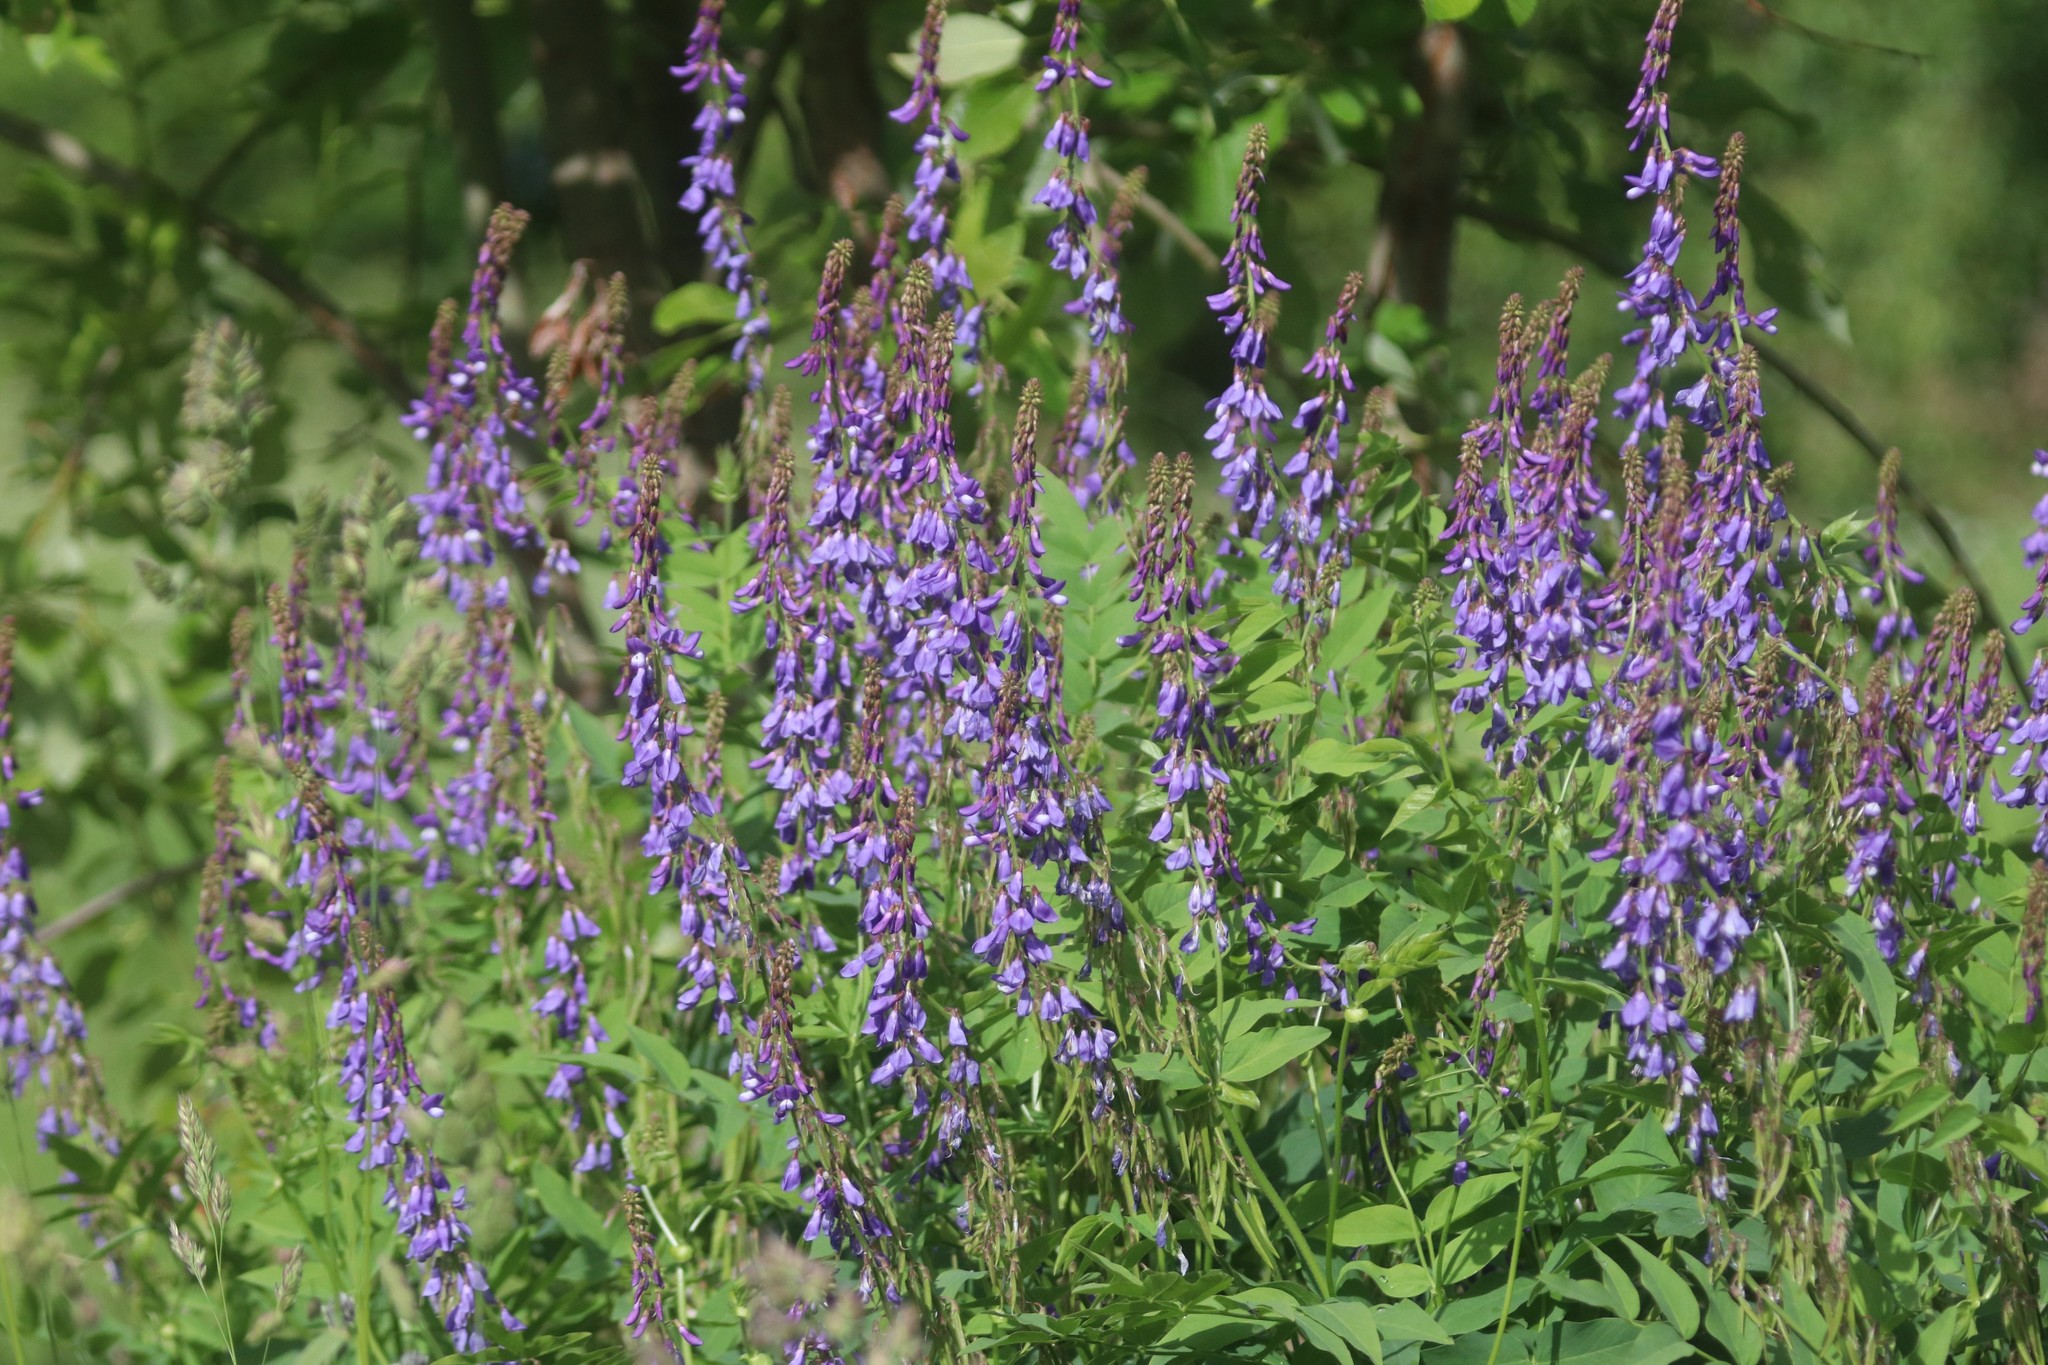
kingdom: Plantae
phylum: Tracheophyta
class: Magnoliopsida
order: Fabales
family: Fabaceae
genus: Galega
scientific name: Galega orientalis
